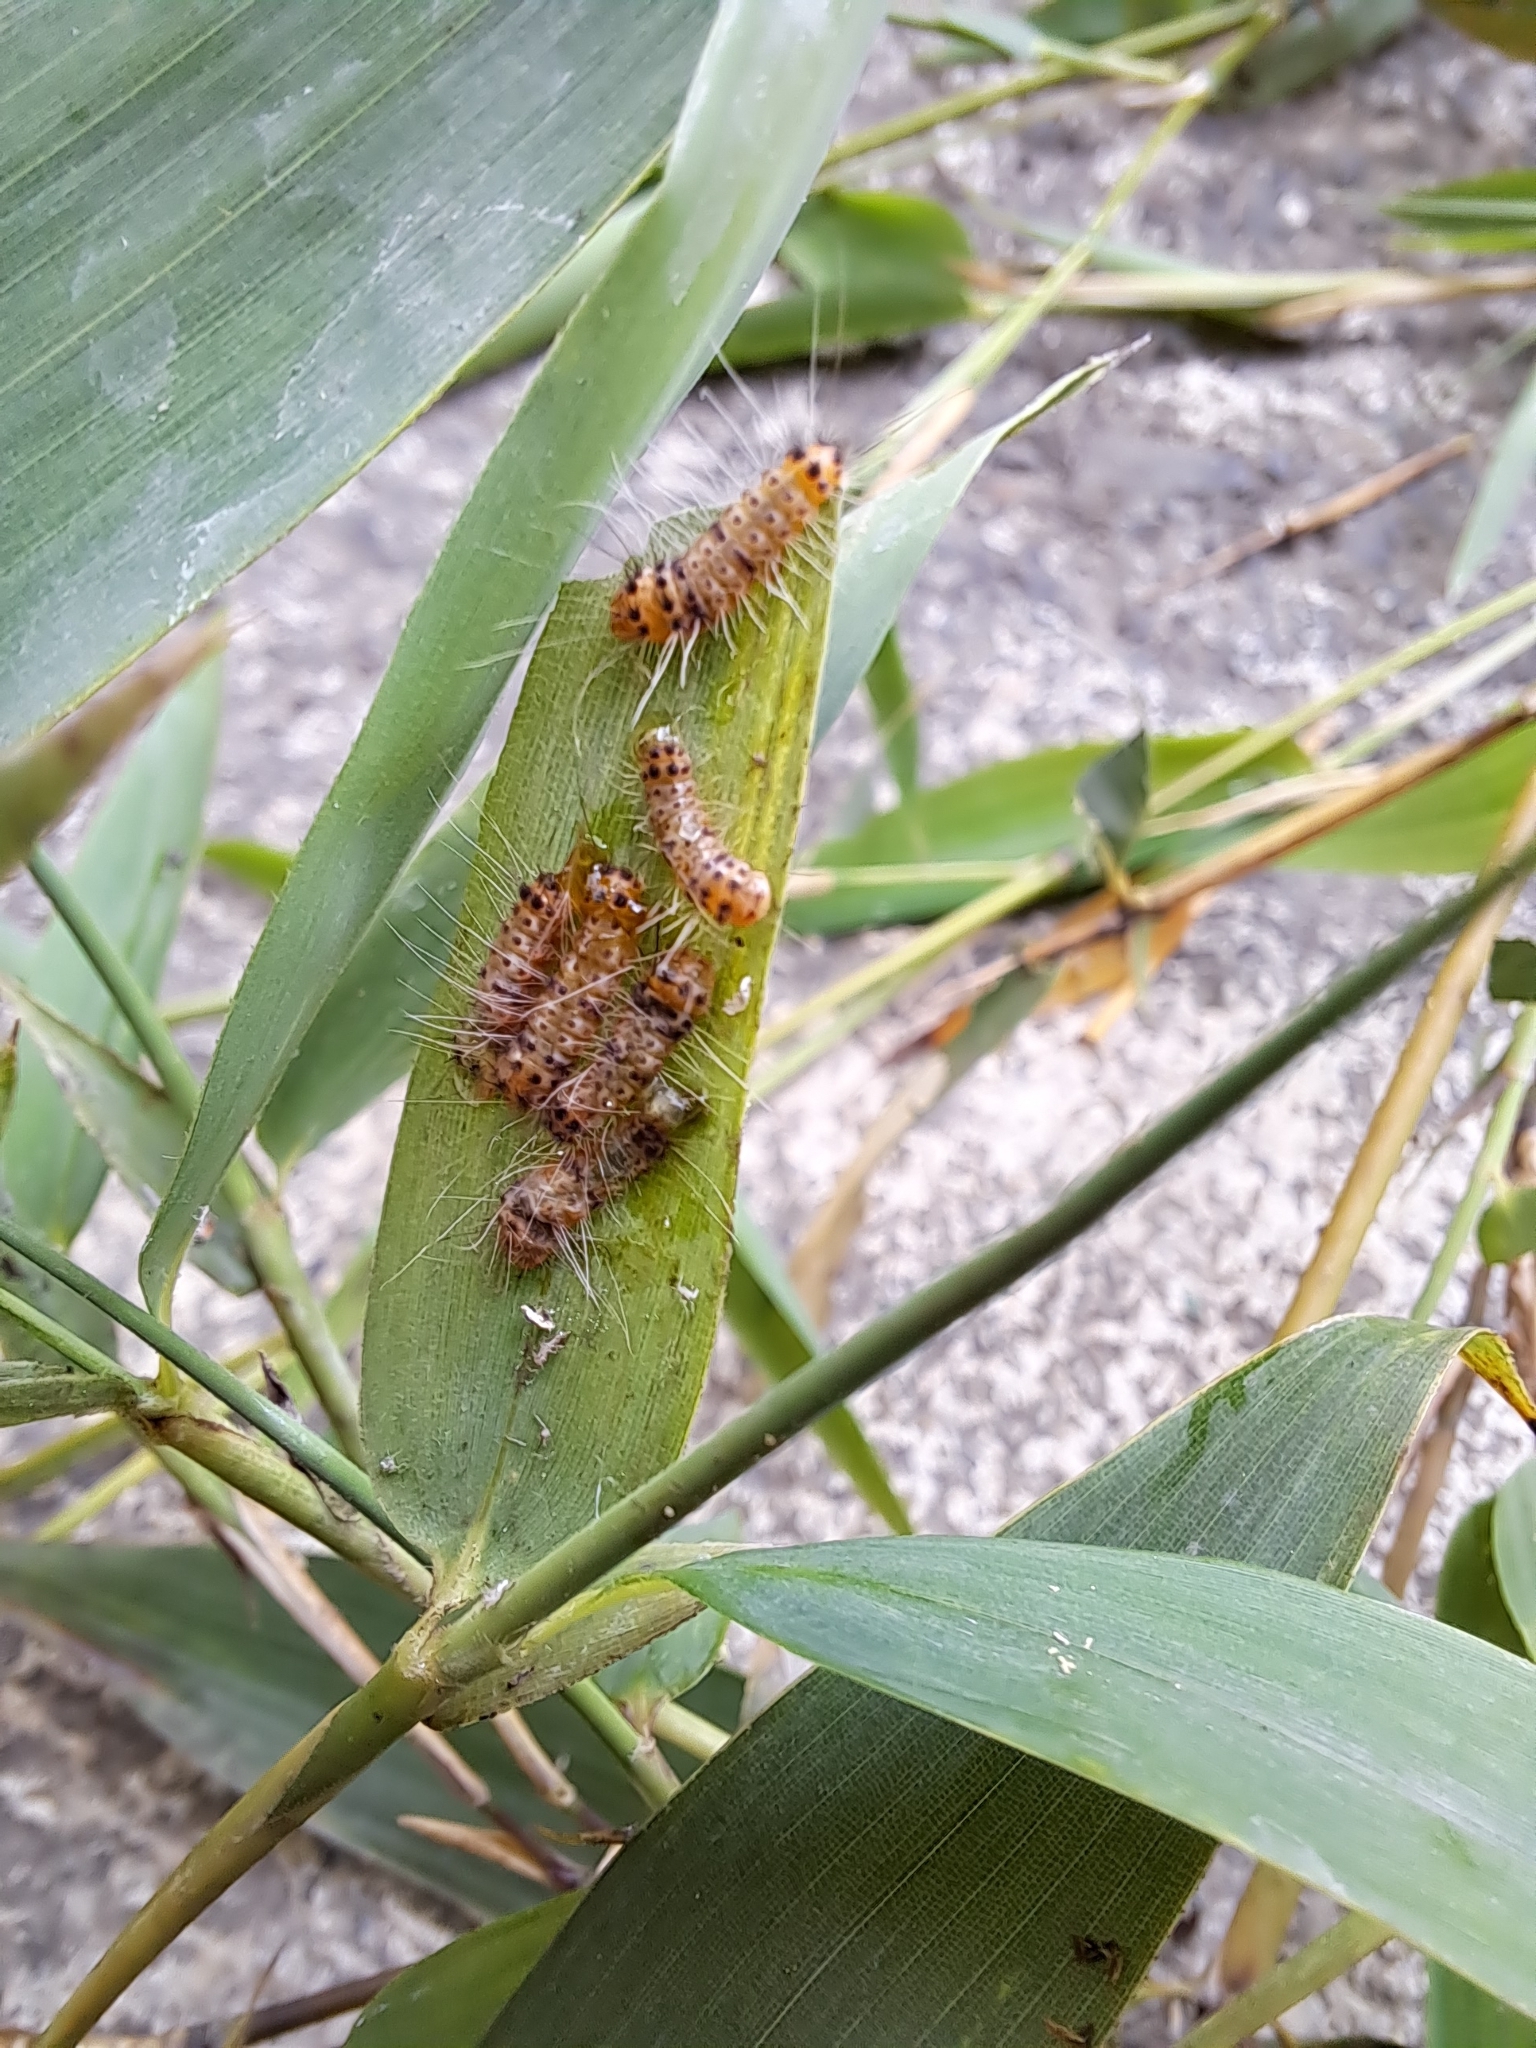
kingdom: Animalia
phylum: Arthropoda
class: Insecta
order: Lepidoptera
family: Zygaenidae
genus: Artona
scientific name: Artona martini
